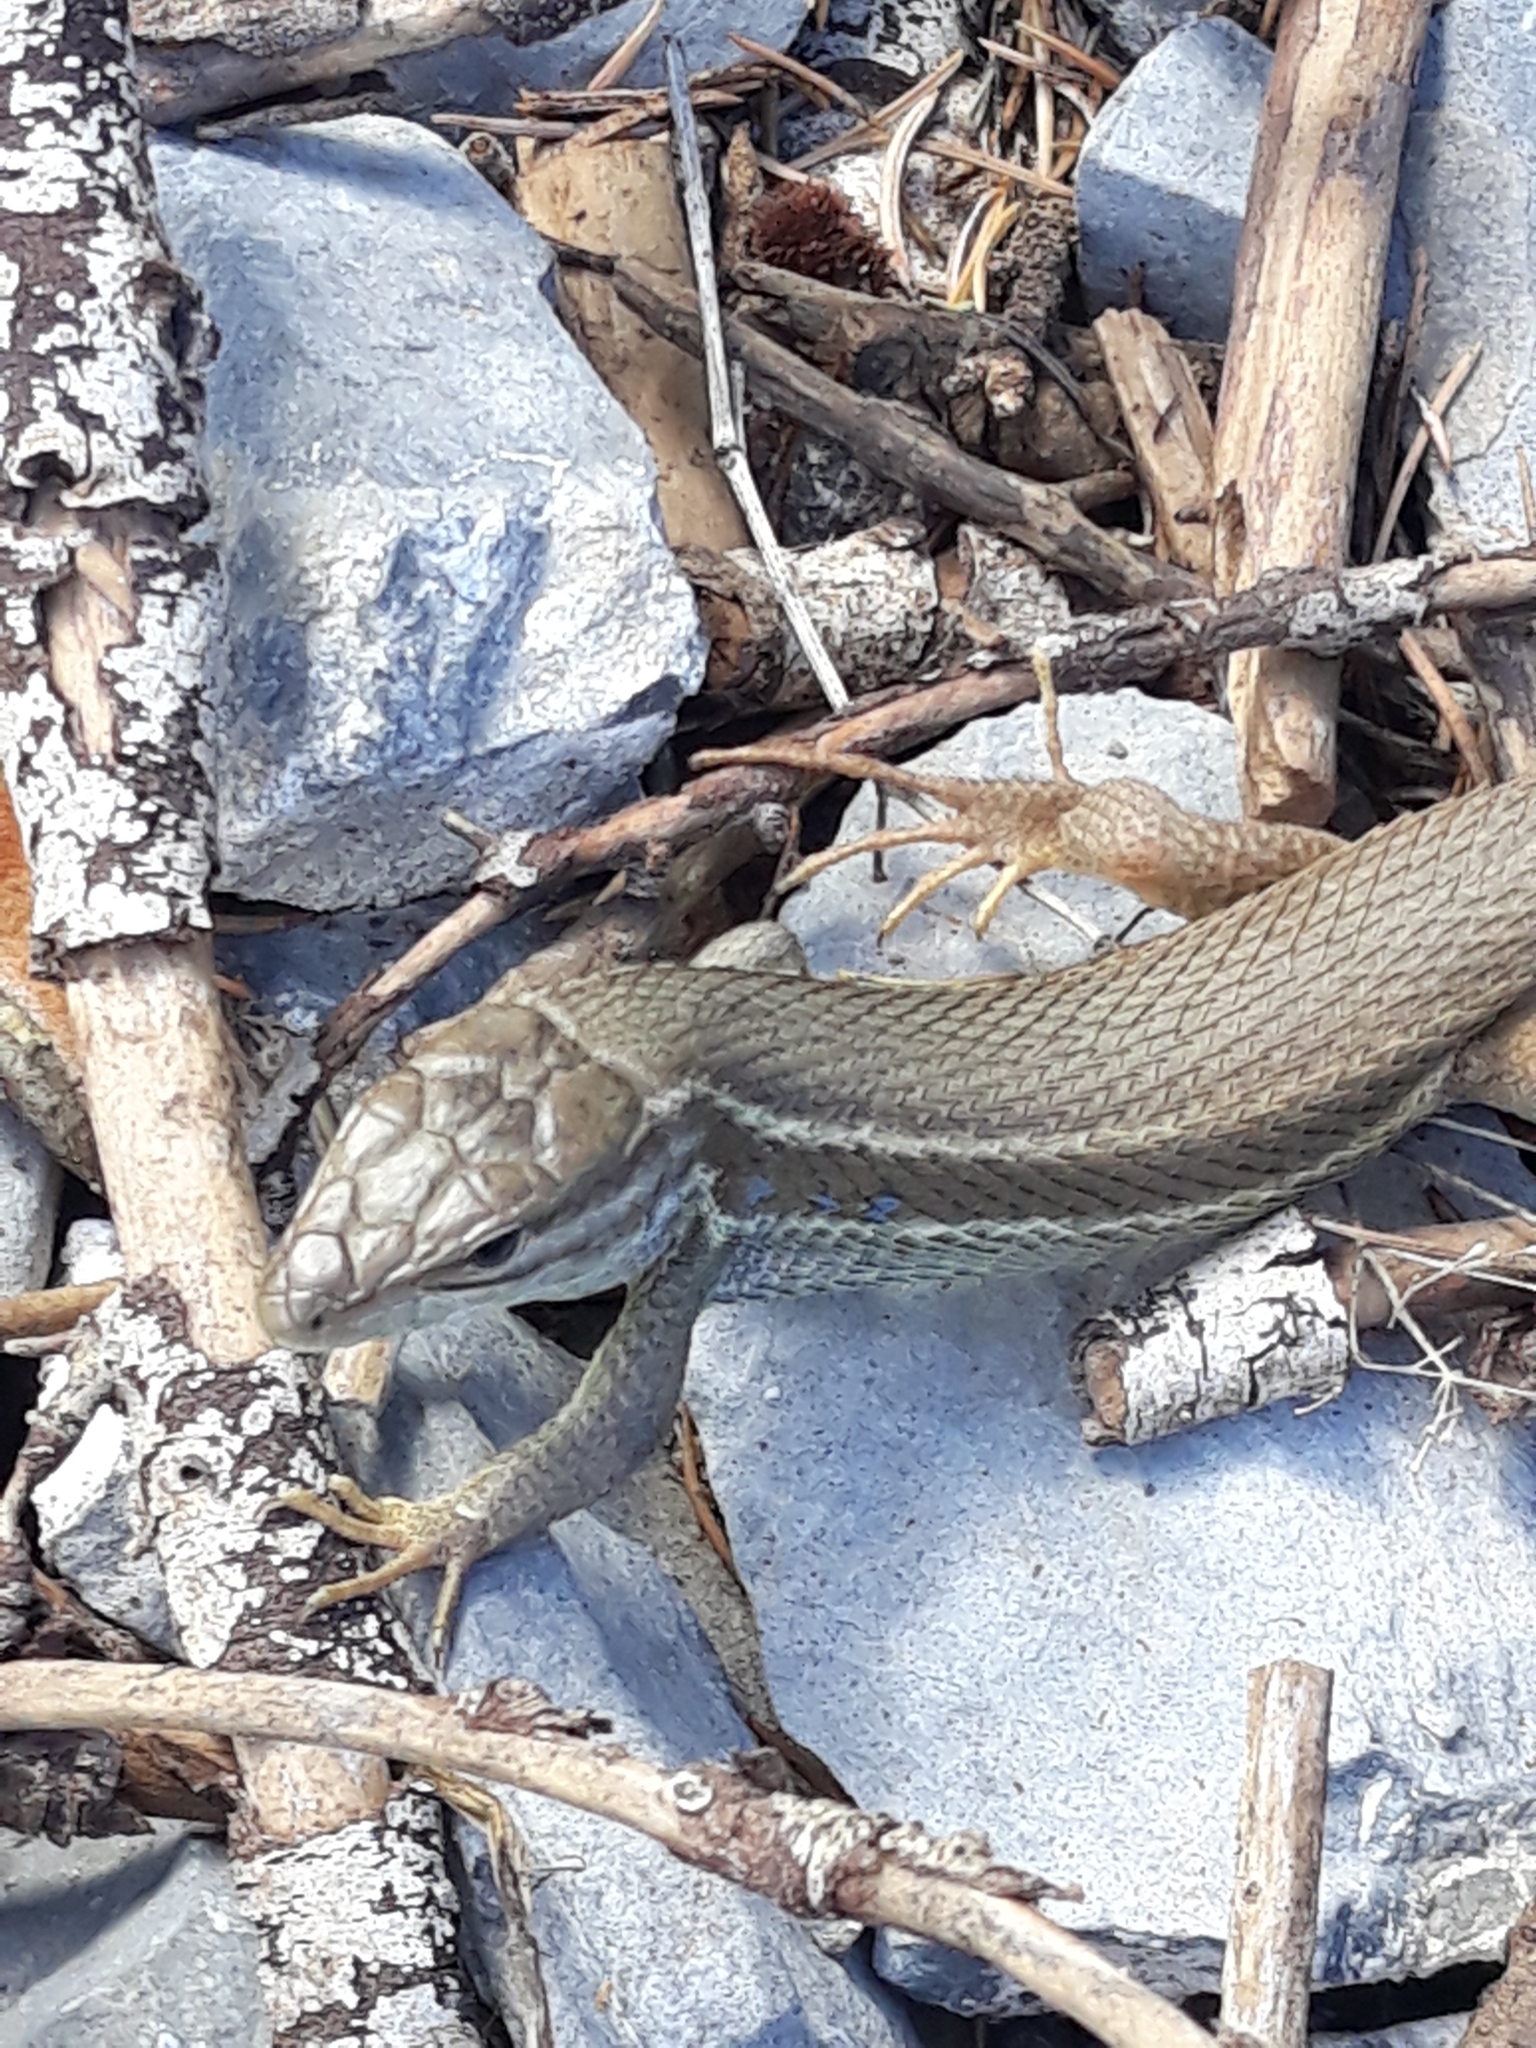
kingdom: Animalia
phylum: Chordata
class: Squamata
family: Lacertidae
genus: Psammodromus
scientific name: Psammodromus algirus
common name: Algerian psammodromus
